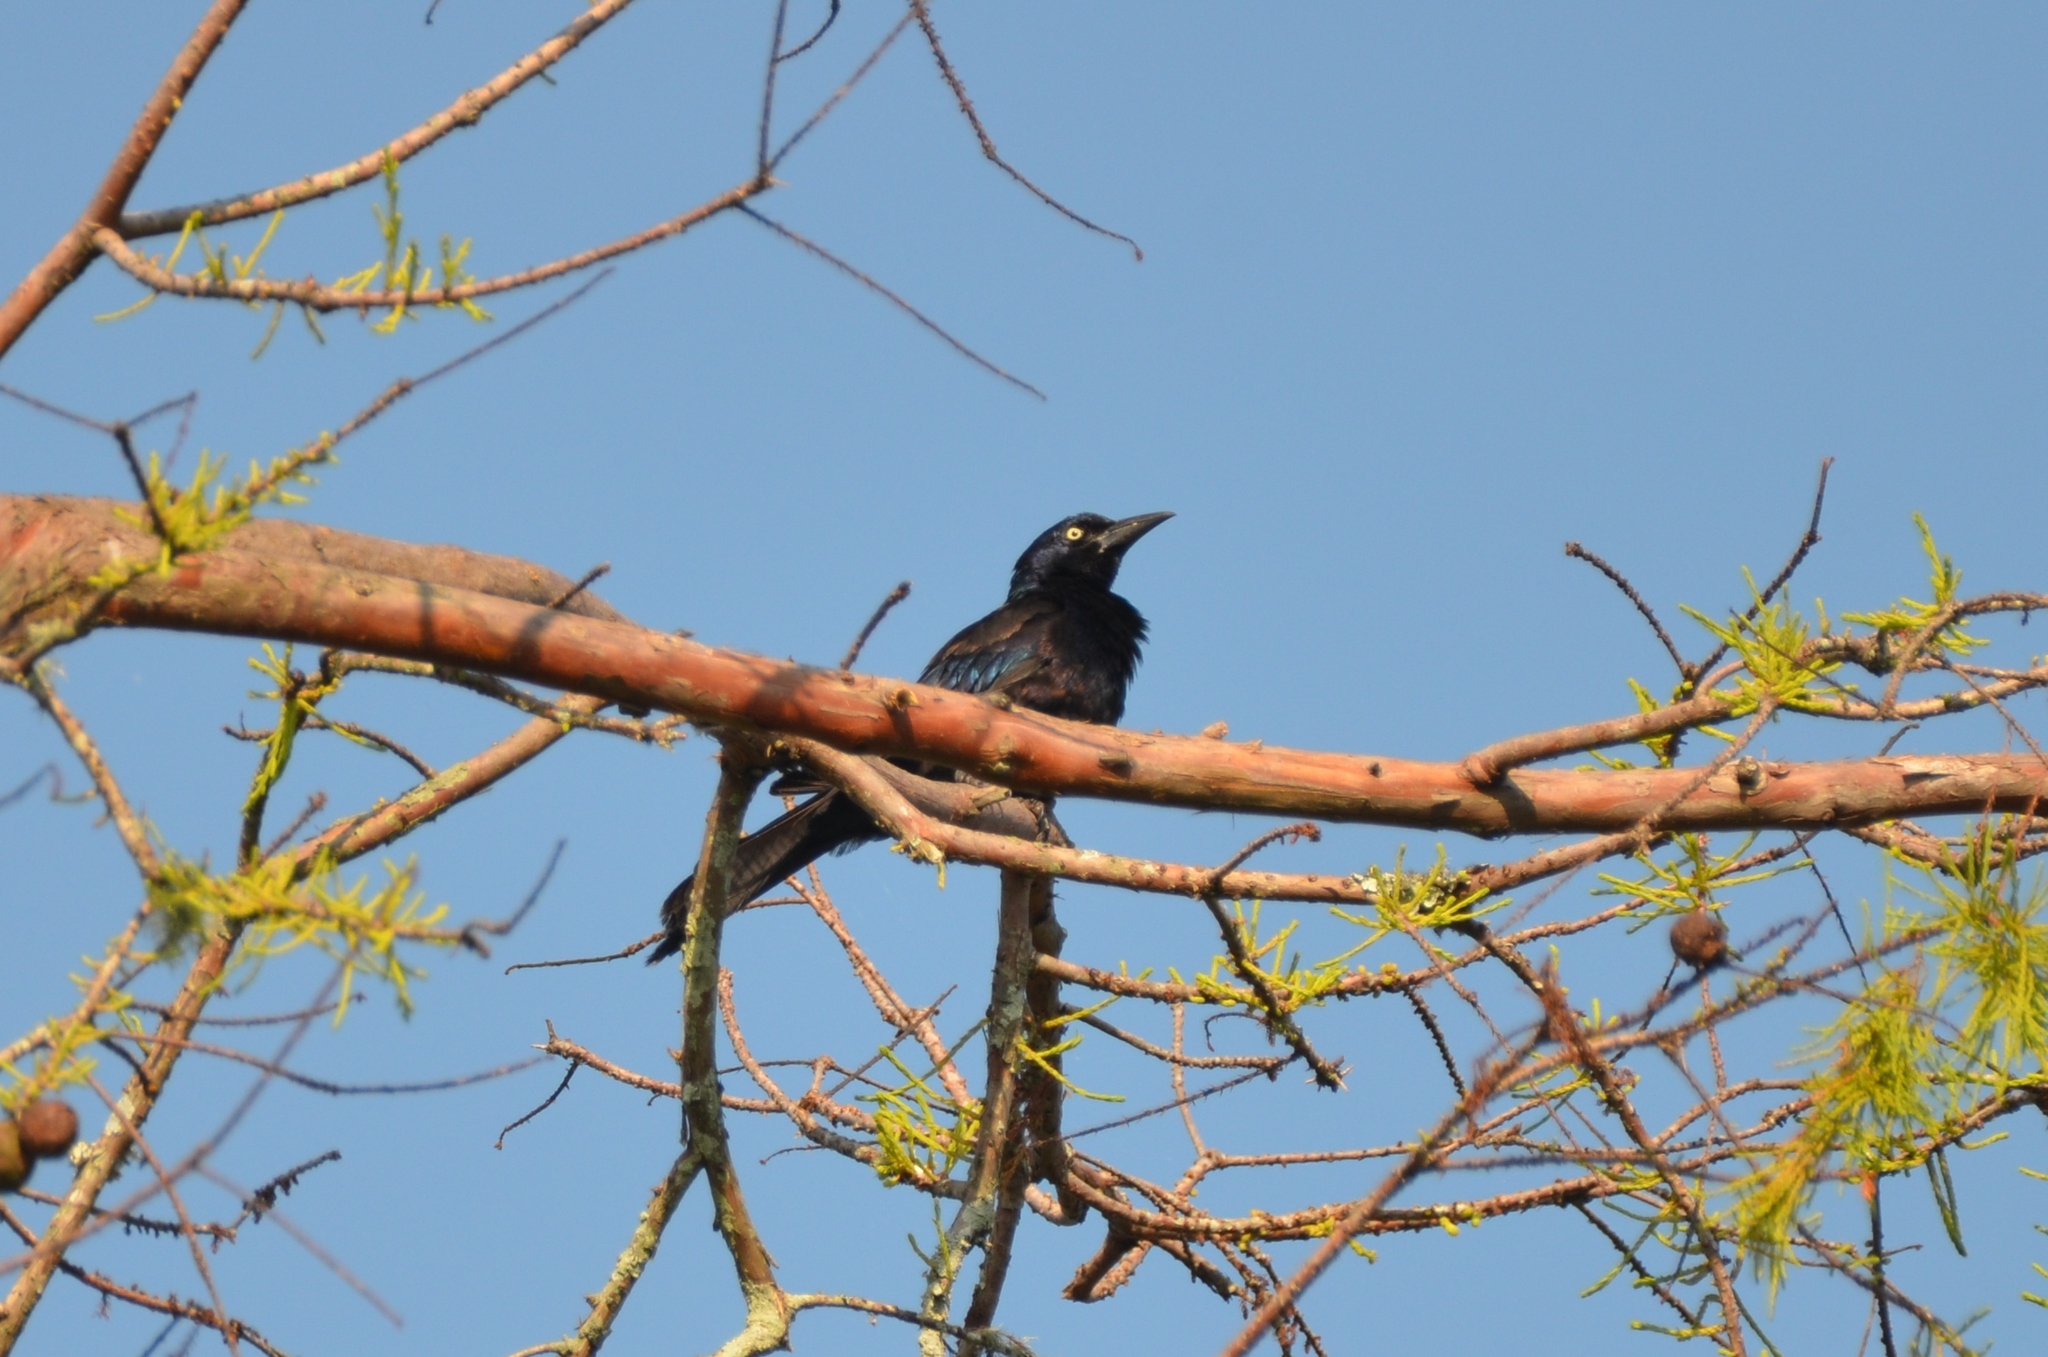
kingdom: Animalia
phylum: Chordata
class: Aves
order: Passeriformes
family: Icteridae
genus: Quiscalus
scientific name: Quiscalus quiscula
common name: Common grackle
